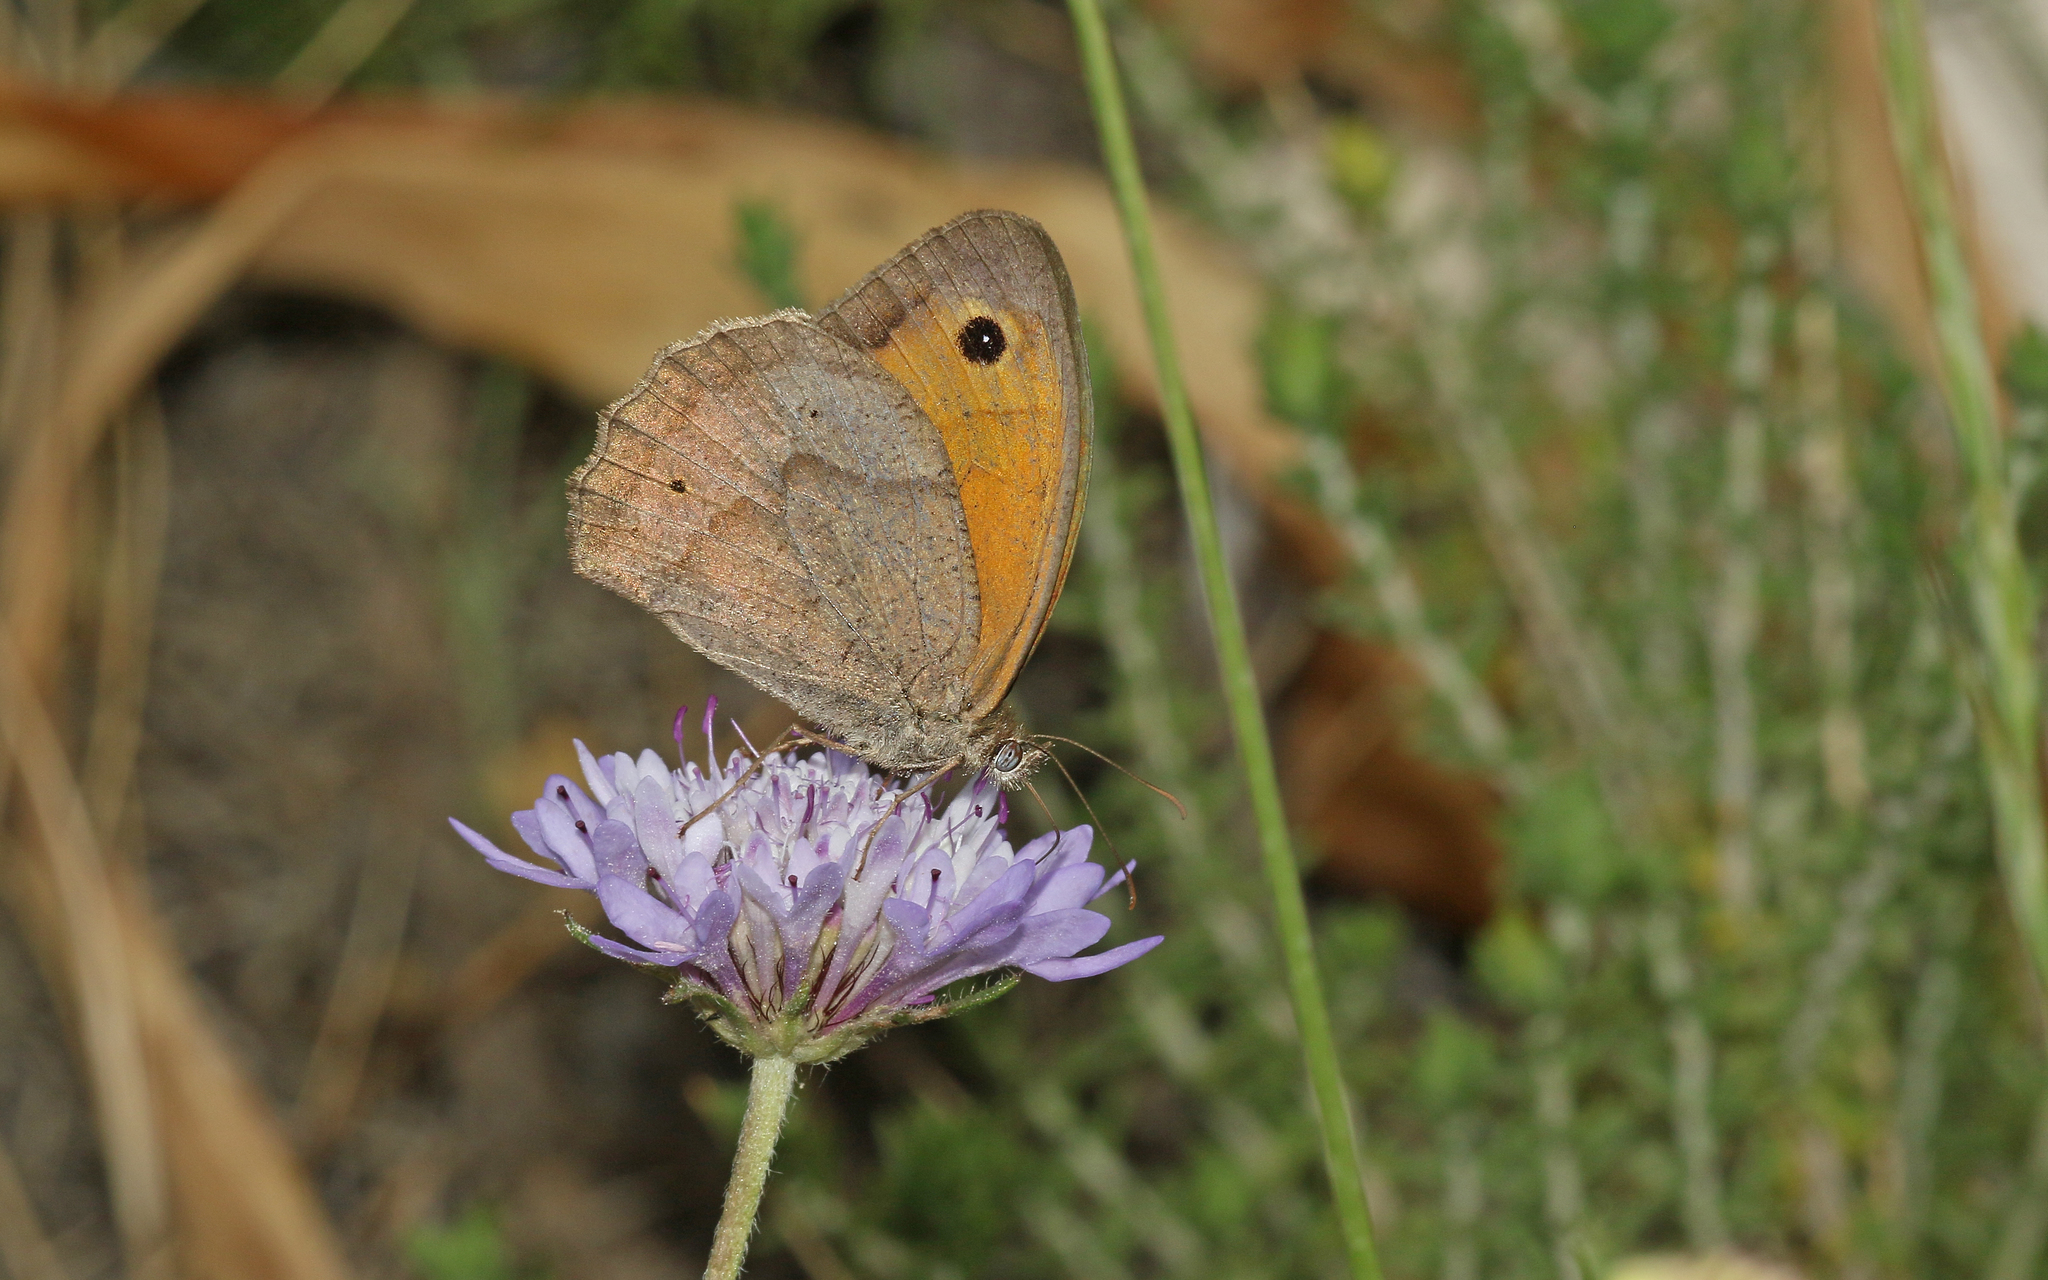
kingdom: Animalia
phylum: Arthropoda
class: Insecta
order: Lepidoptera
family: Nymphalidae
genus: Maniola
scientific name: Maniola jurtina
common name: Meadow brown
